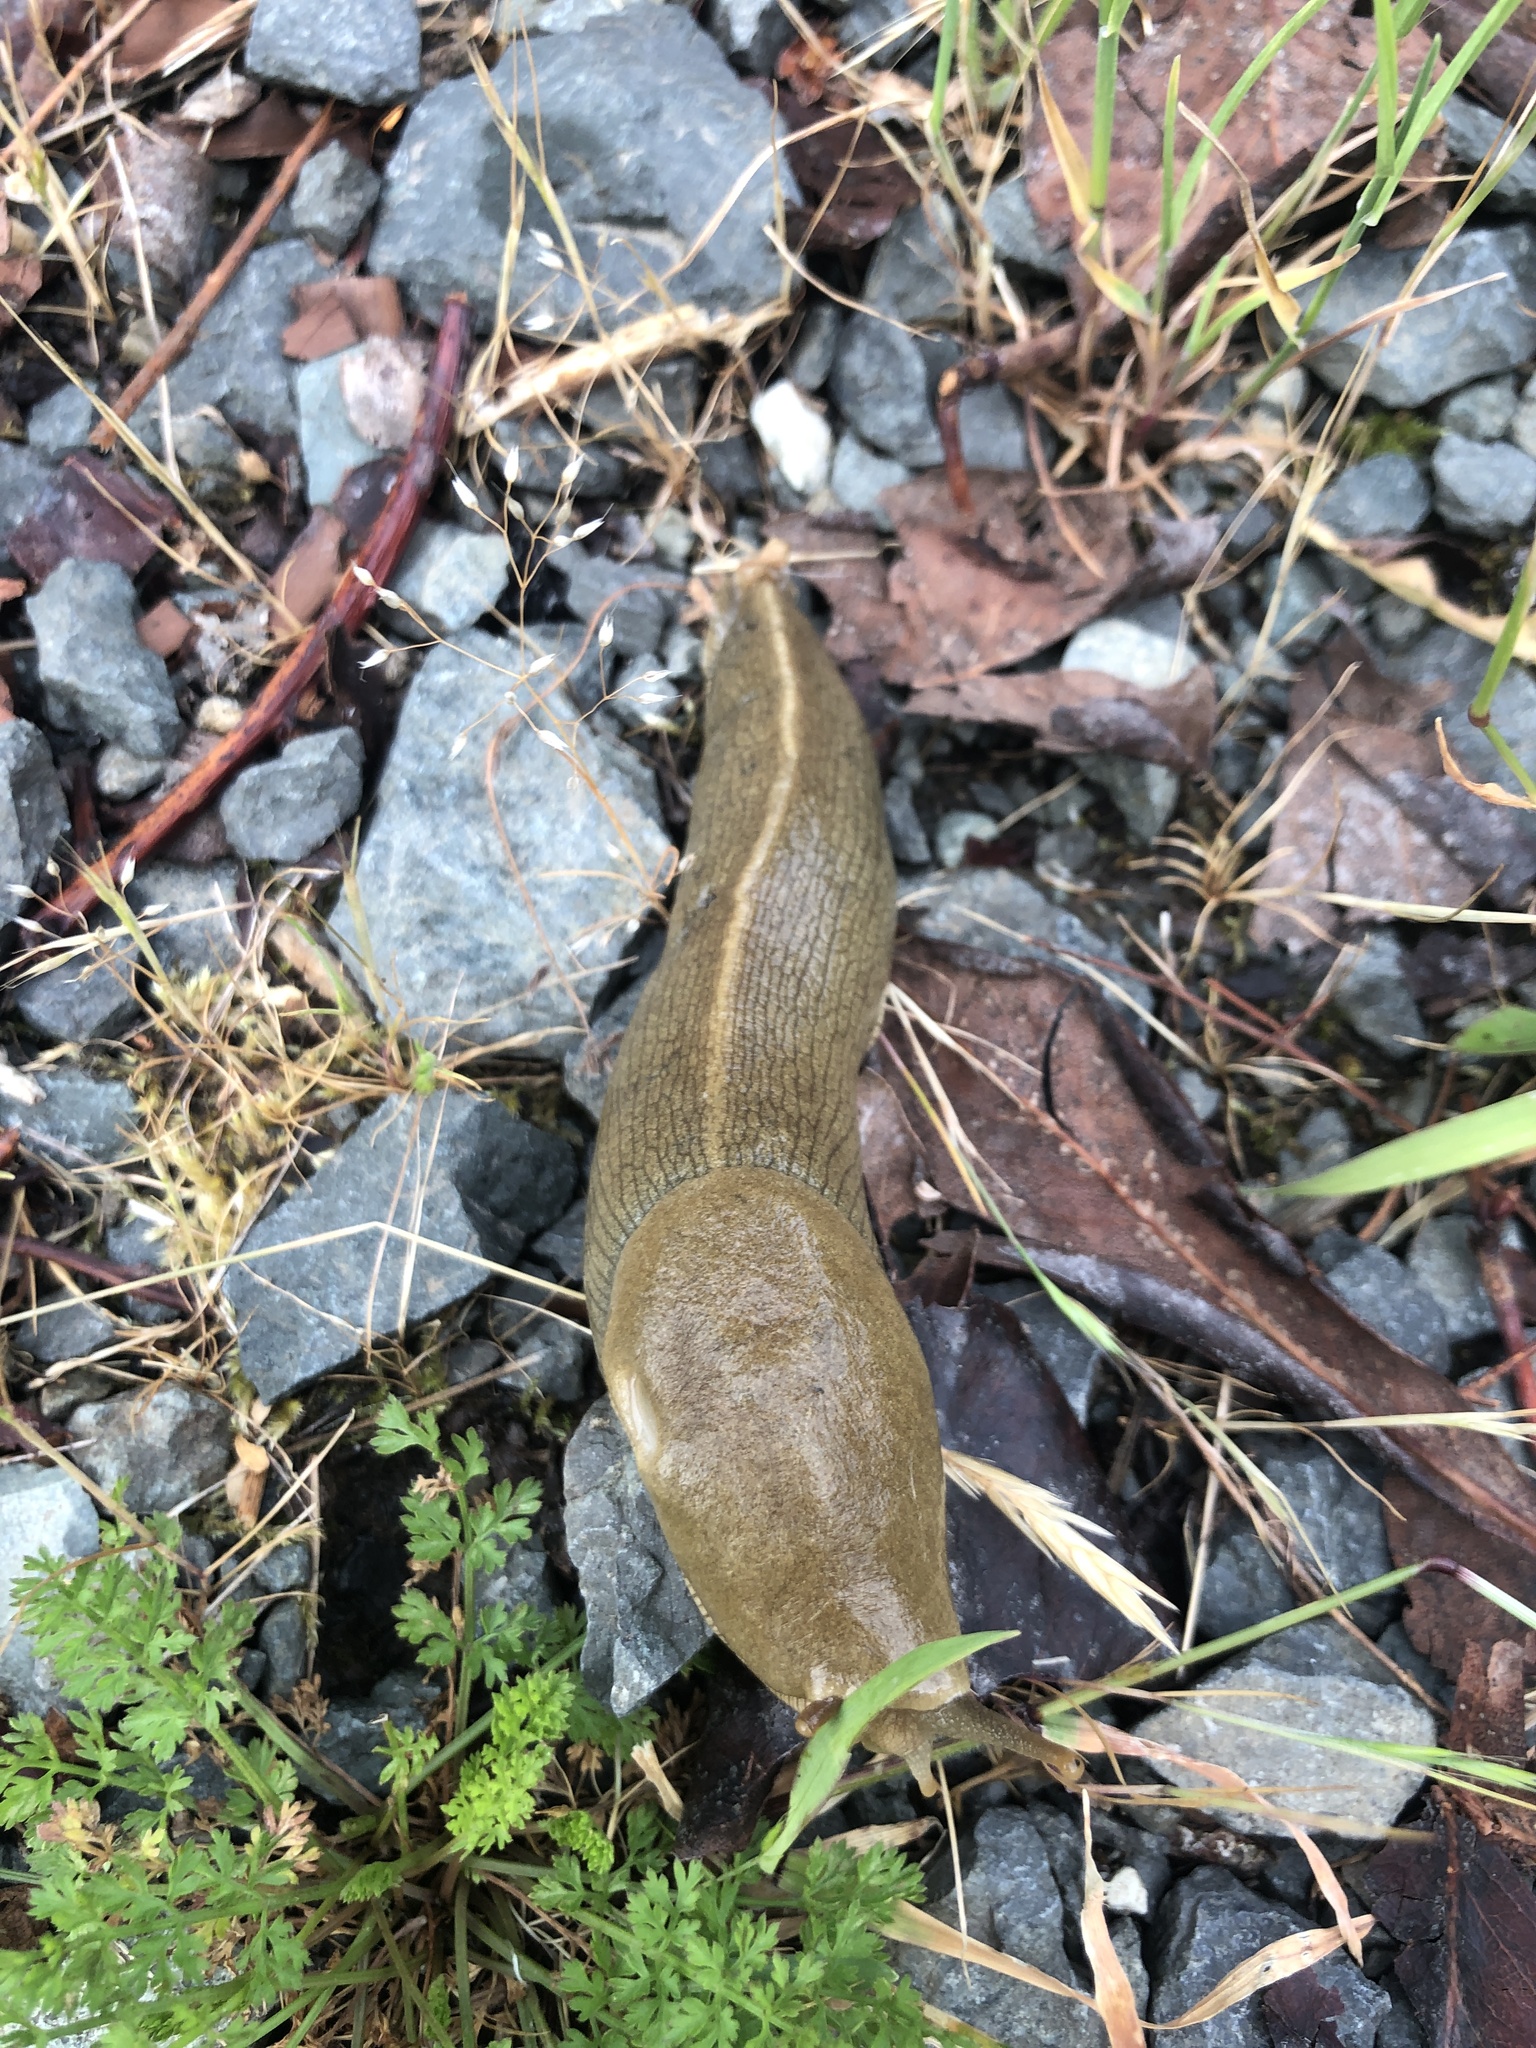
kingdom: Animalia
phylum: Mollusca
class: Gastropoda
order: Stylommatophora
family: Ariolimacidae
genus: Ariolimax
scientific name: Ariolimax columbianus
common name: Pacific banana slug
